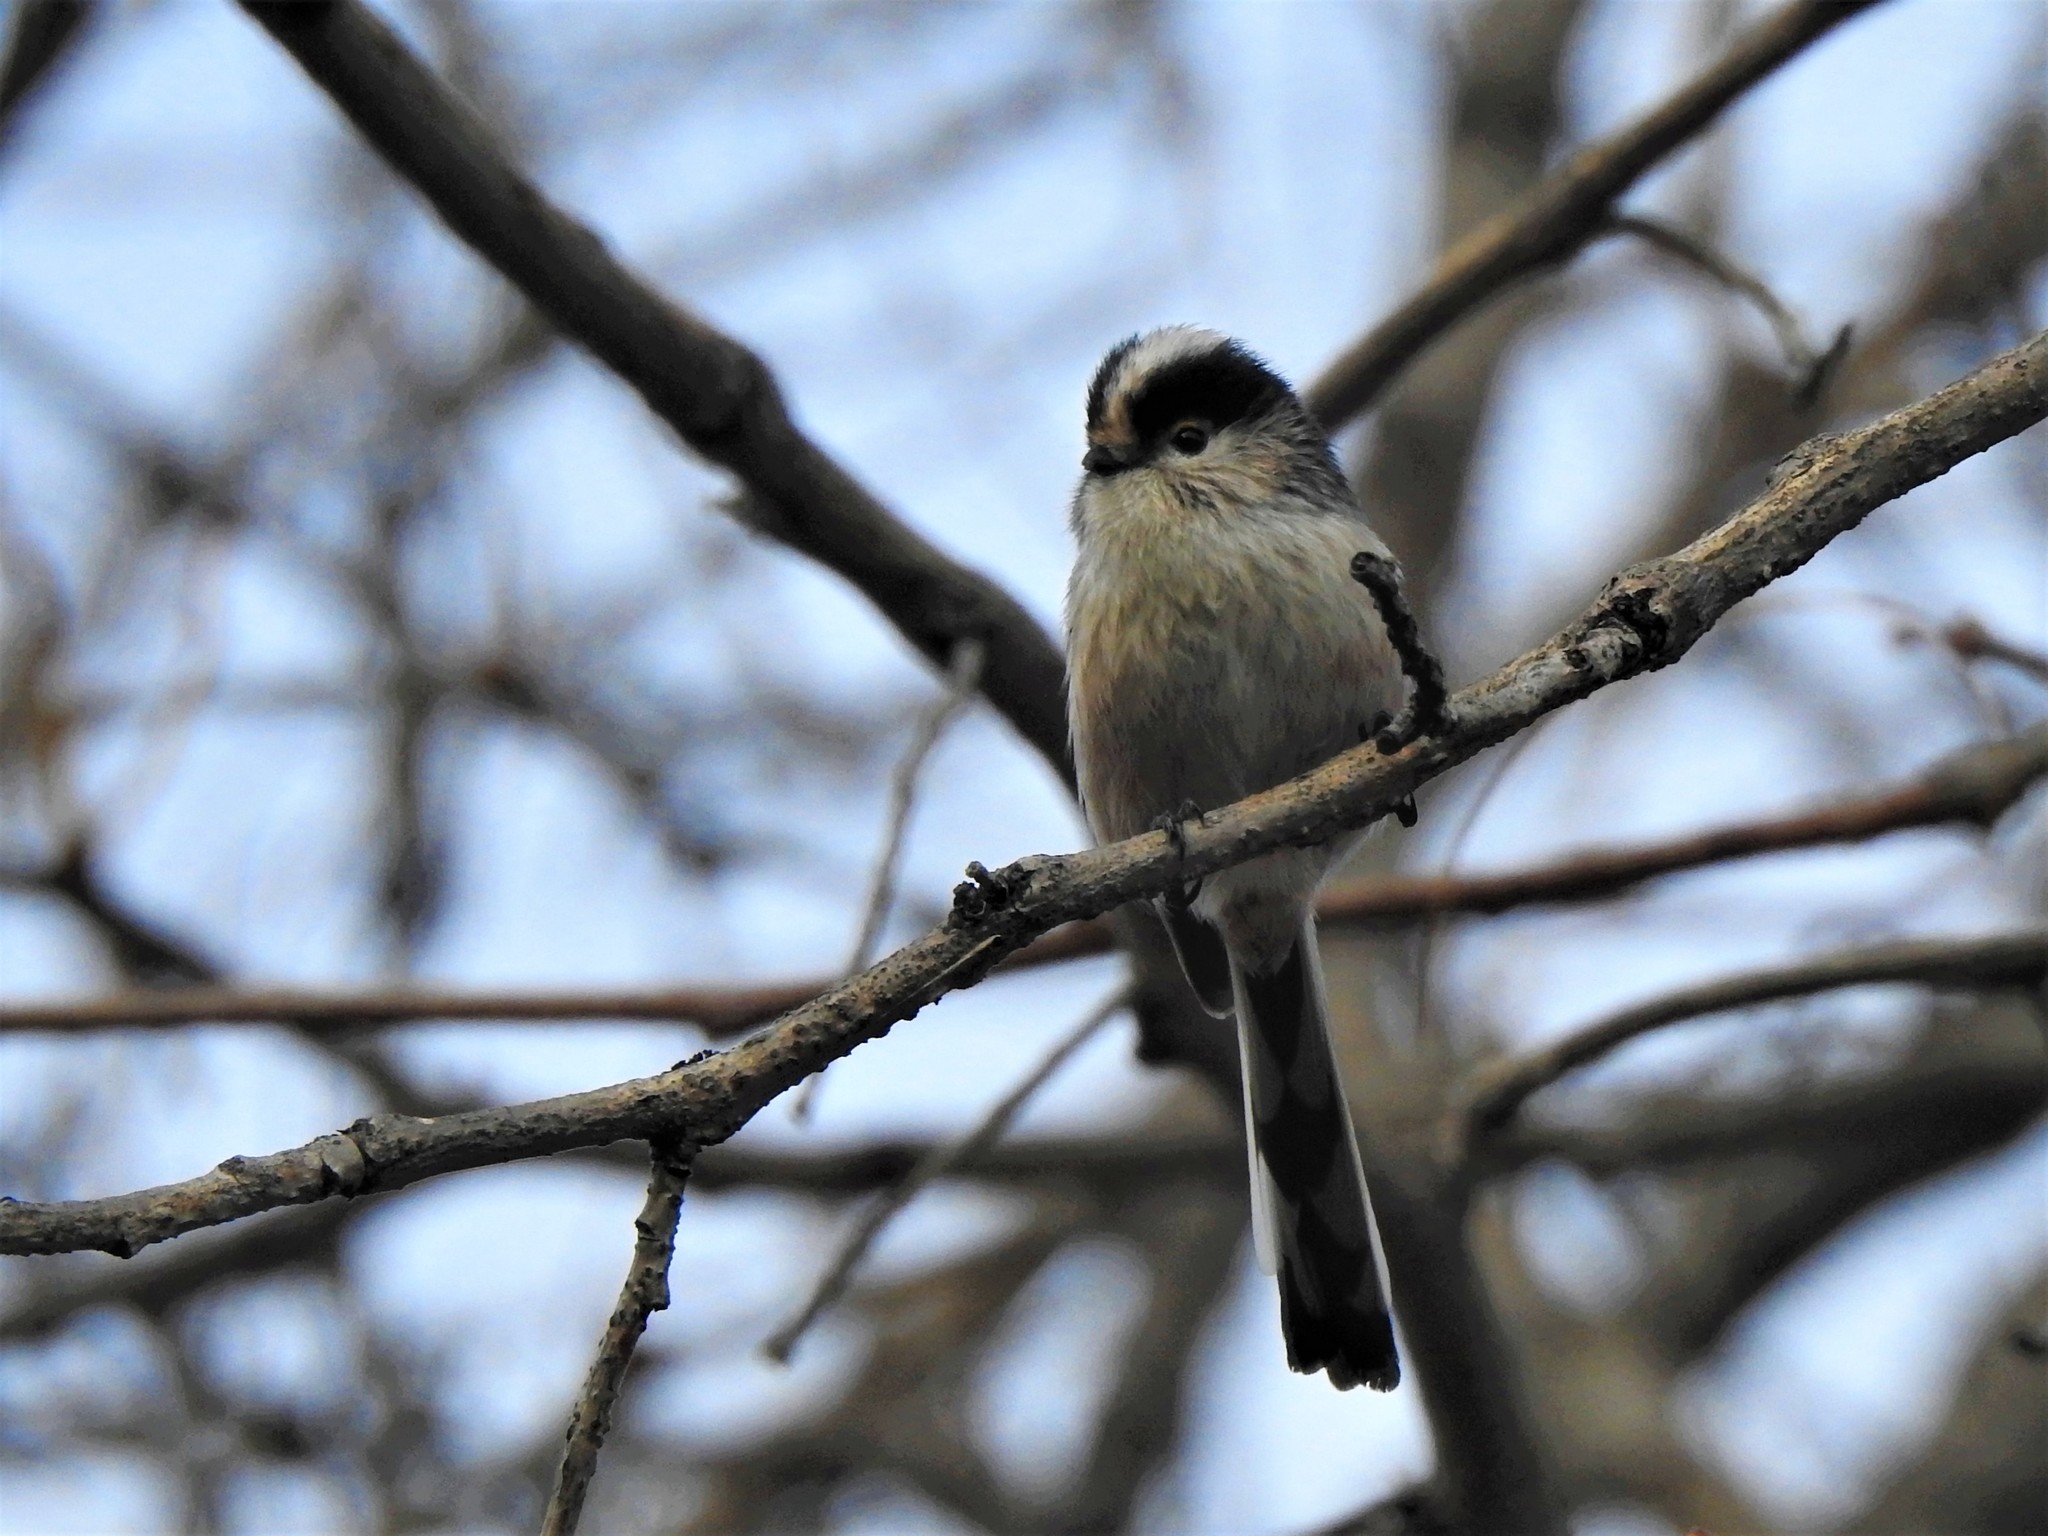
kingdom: Animalia
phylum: Chordata
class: Aves
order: Passeriformes
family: Aegithalidae
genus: Aegithalos
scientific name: Aegithalos caudatus
